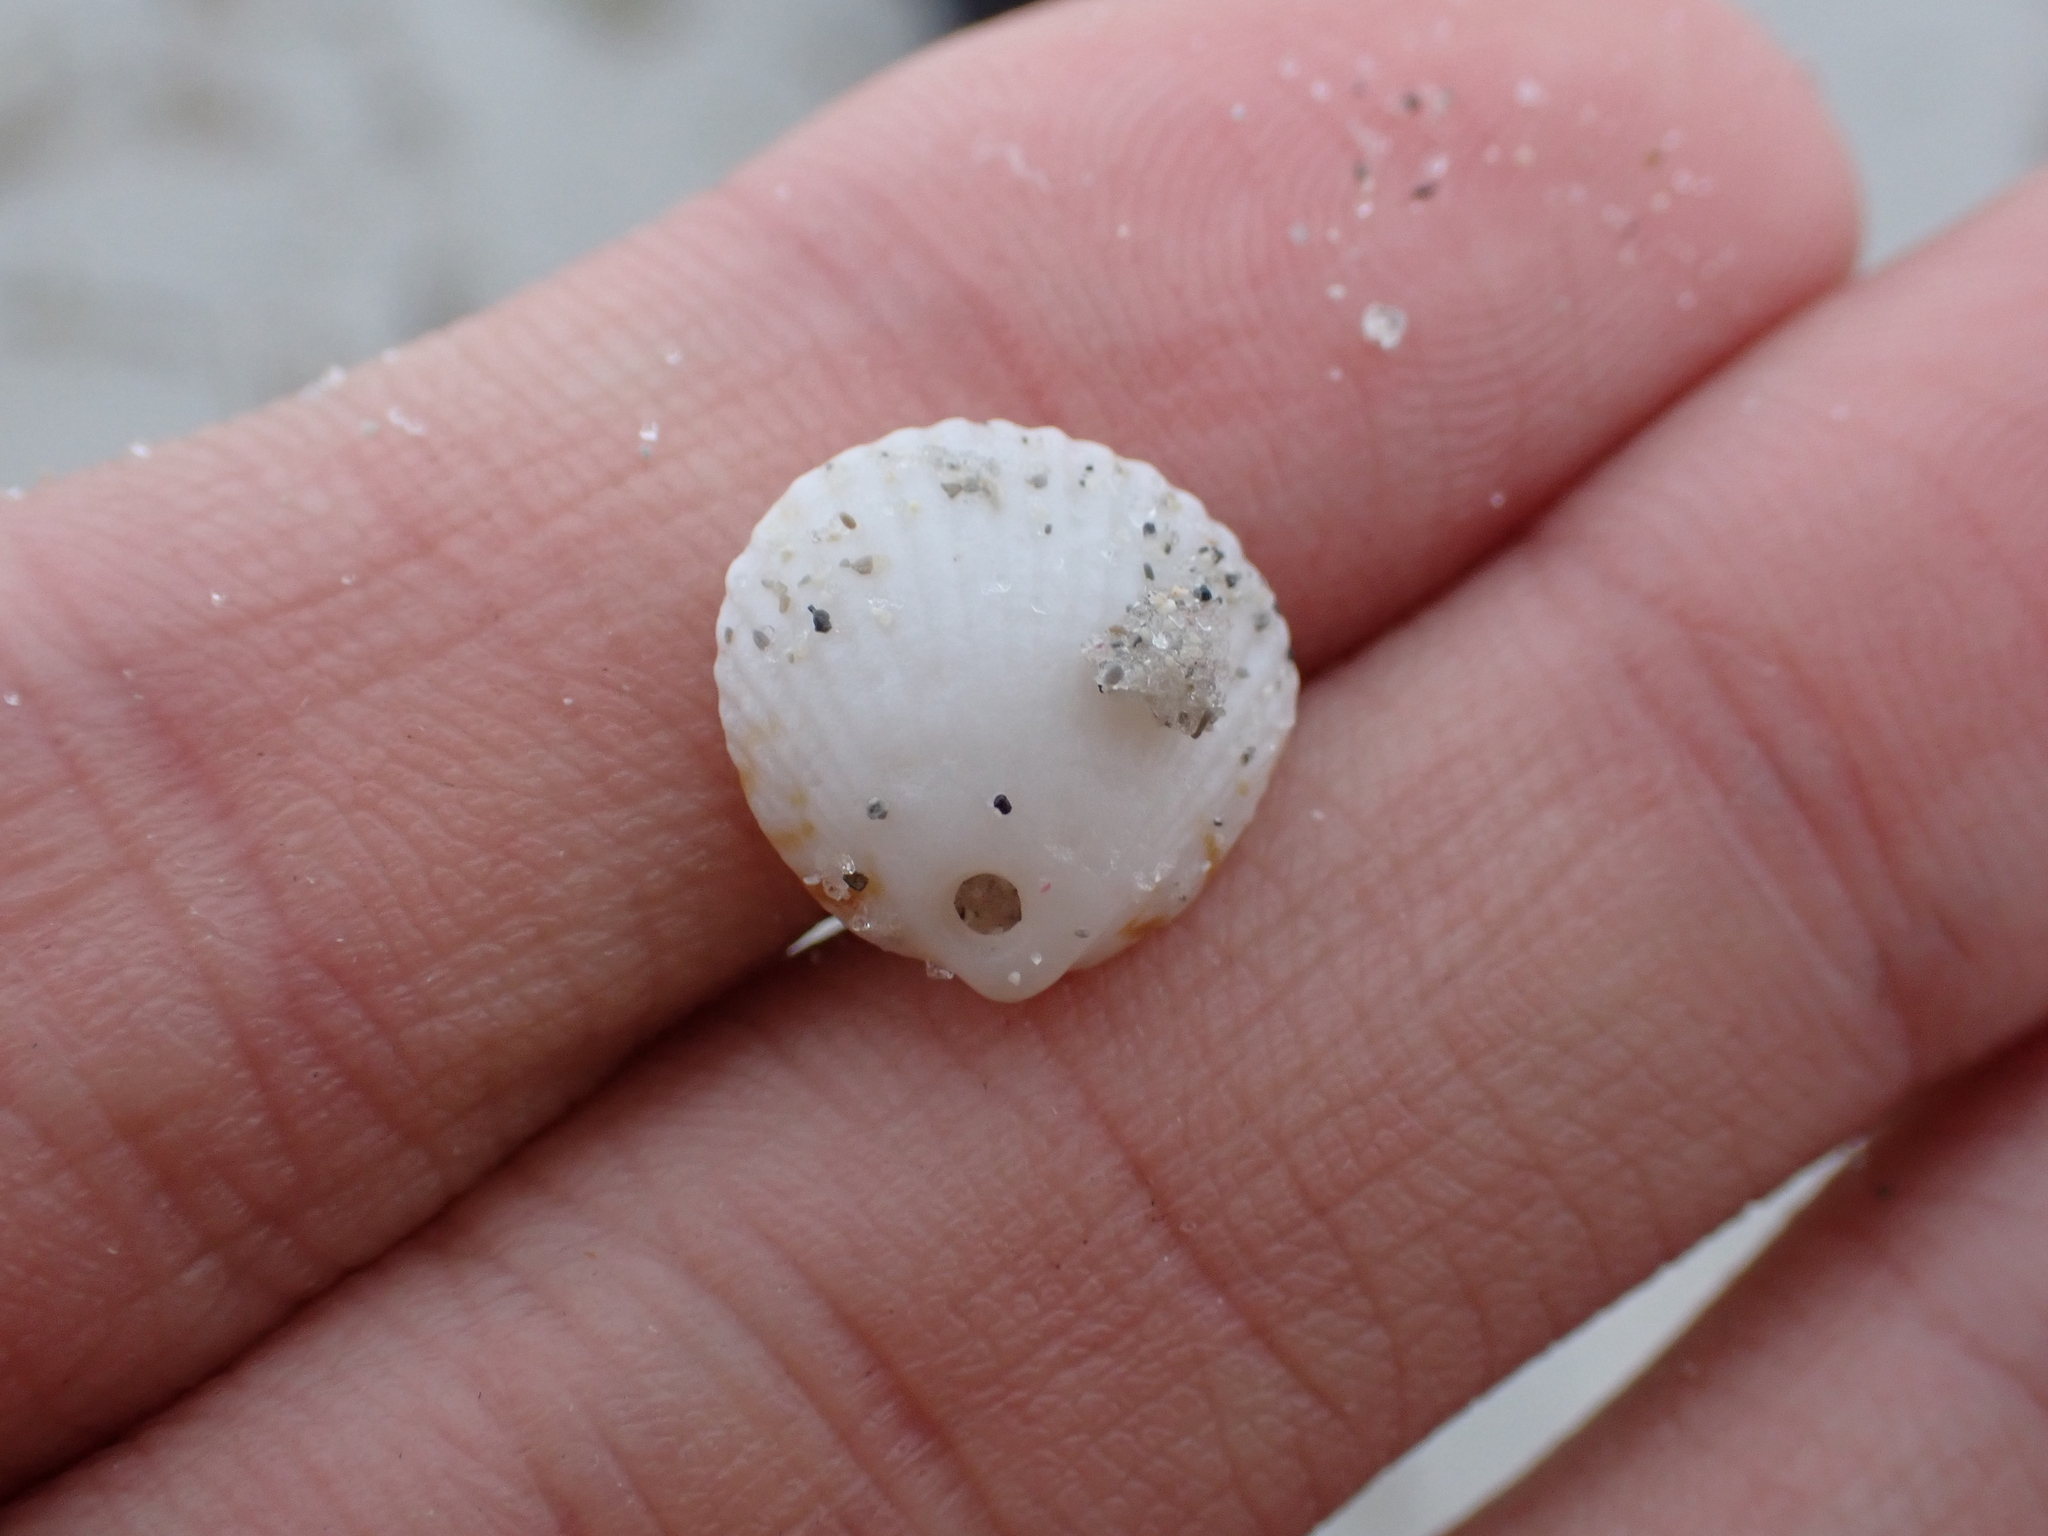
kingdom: Animalia
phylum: Mollusca
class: Bivalvia
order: Arcida
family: Glycymerididae
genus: Tucetona
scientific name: Tucetona pectinata
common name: Comb bittersweet
